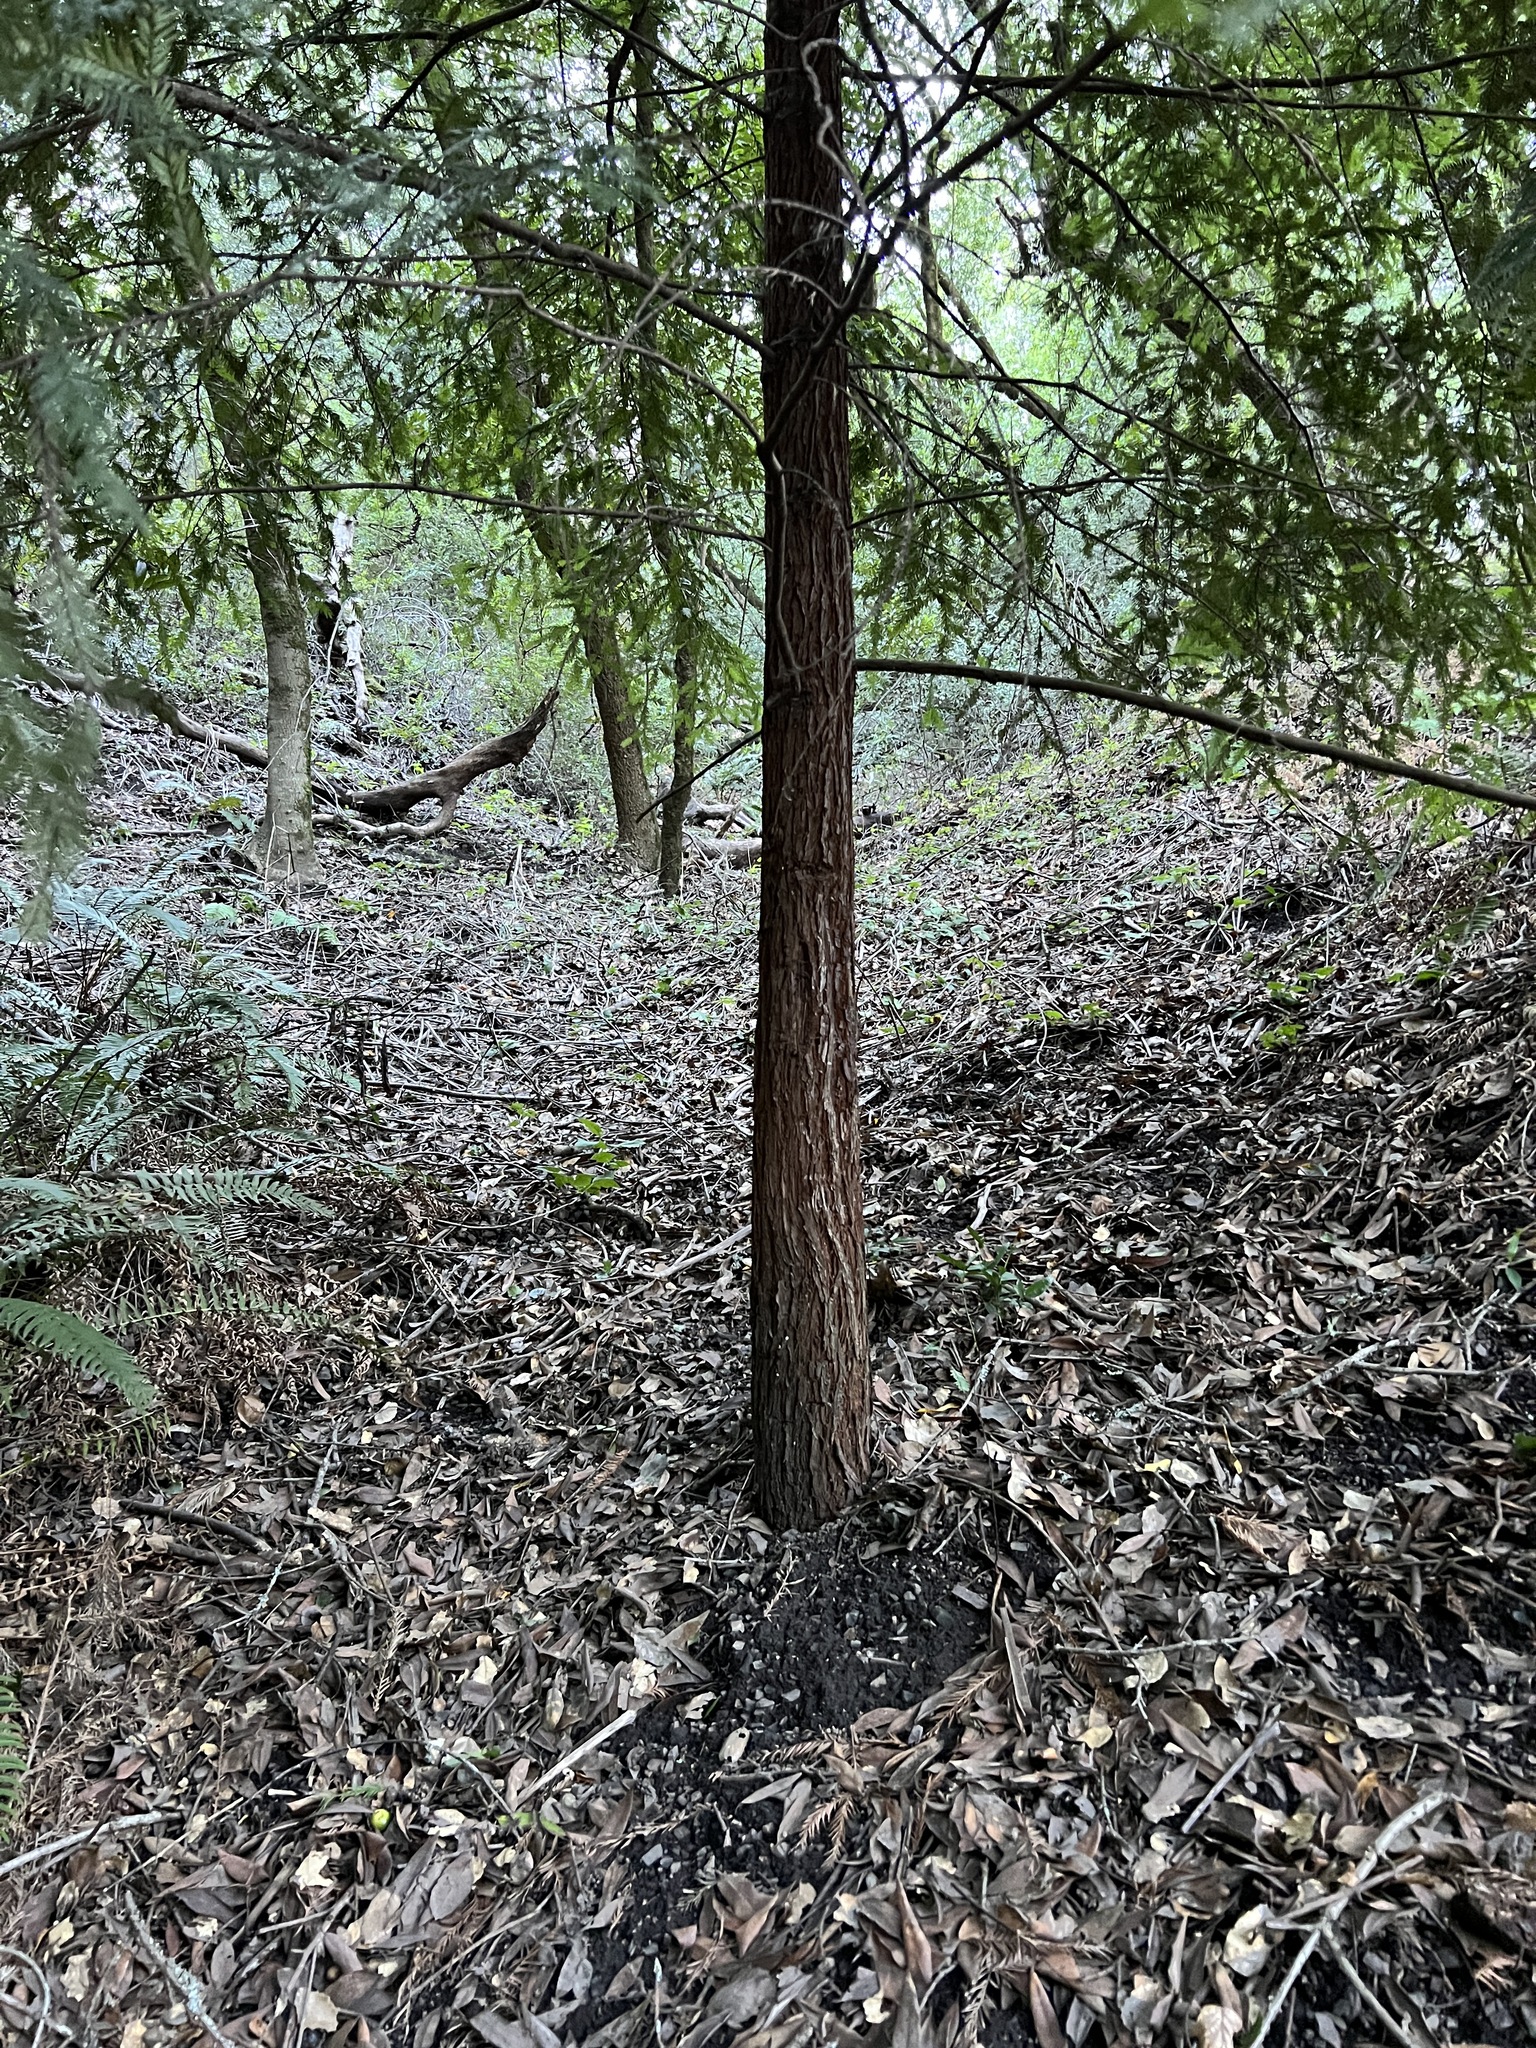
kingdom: Plantae
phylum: Tracheophyta
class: Pinopsida
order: Pinales
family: Cupressaceae
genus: Sequoia
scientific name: Sequoia sempervirens
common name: Coast redwood
